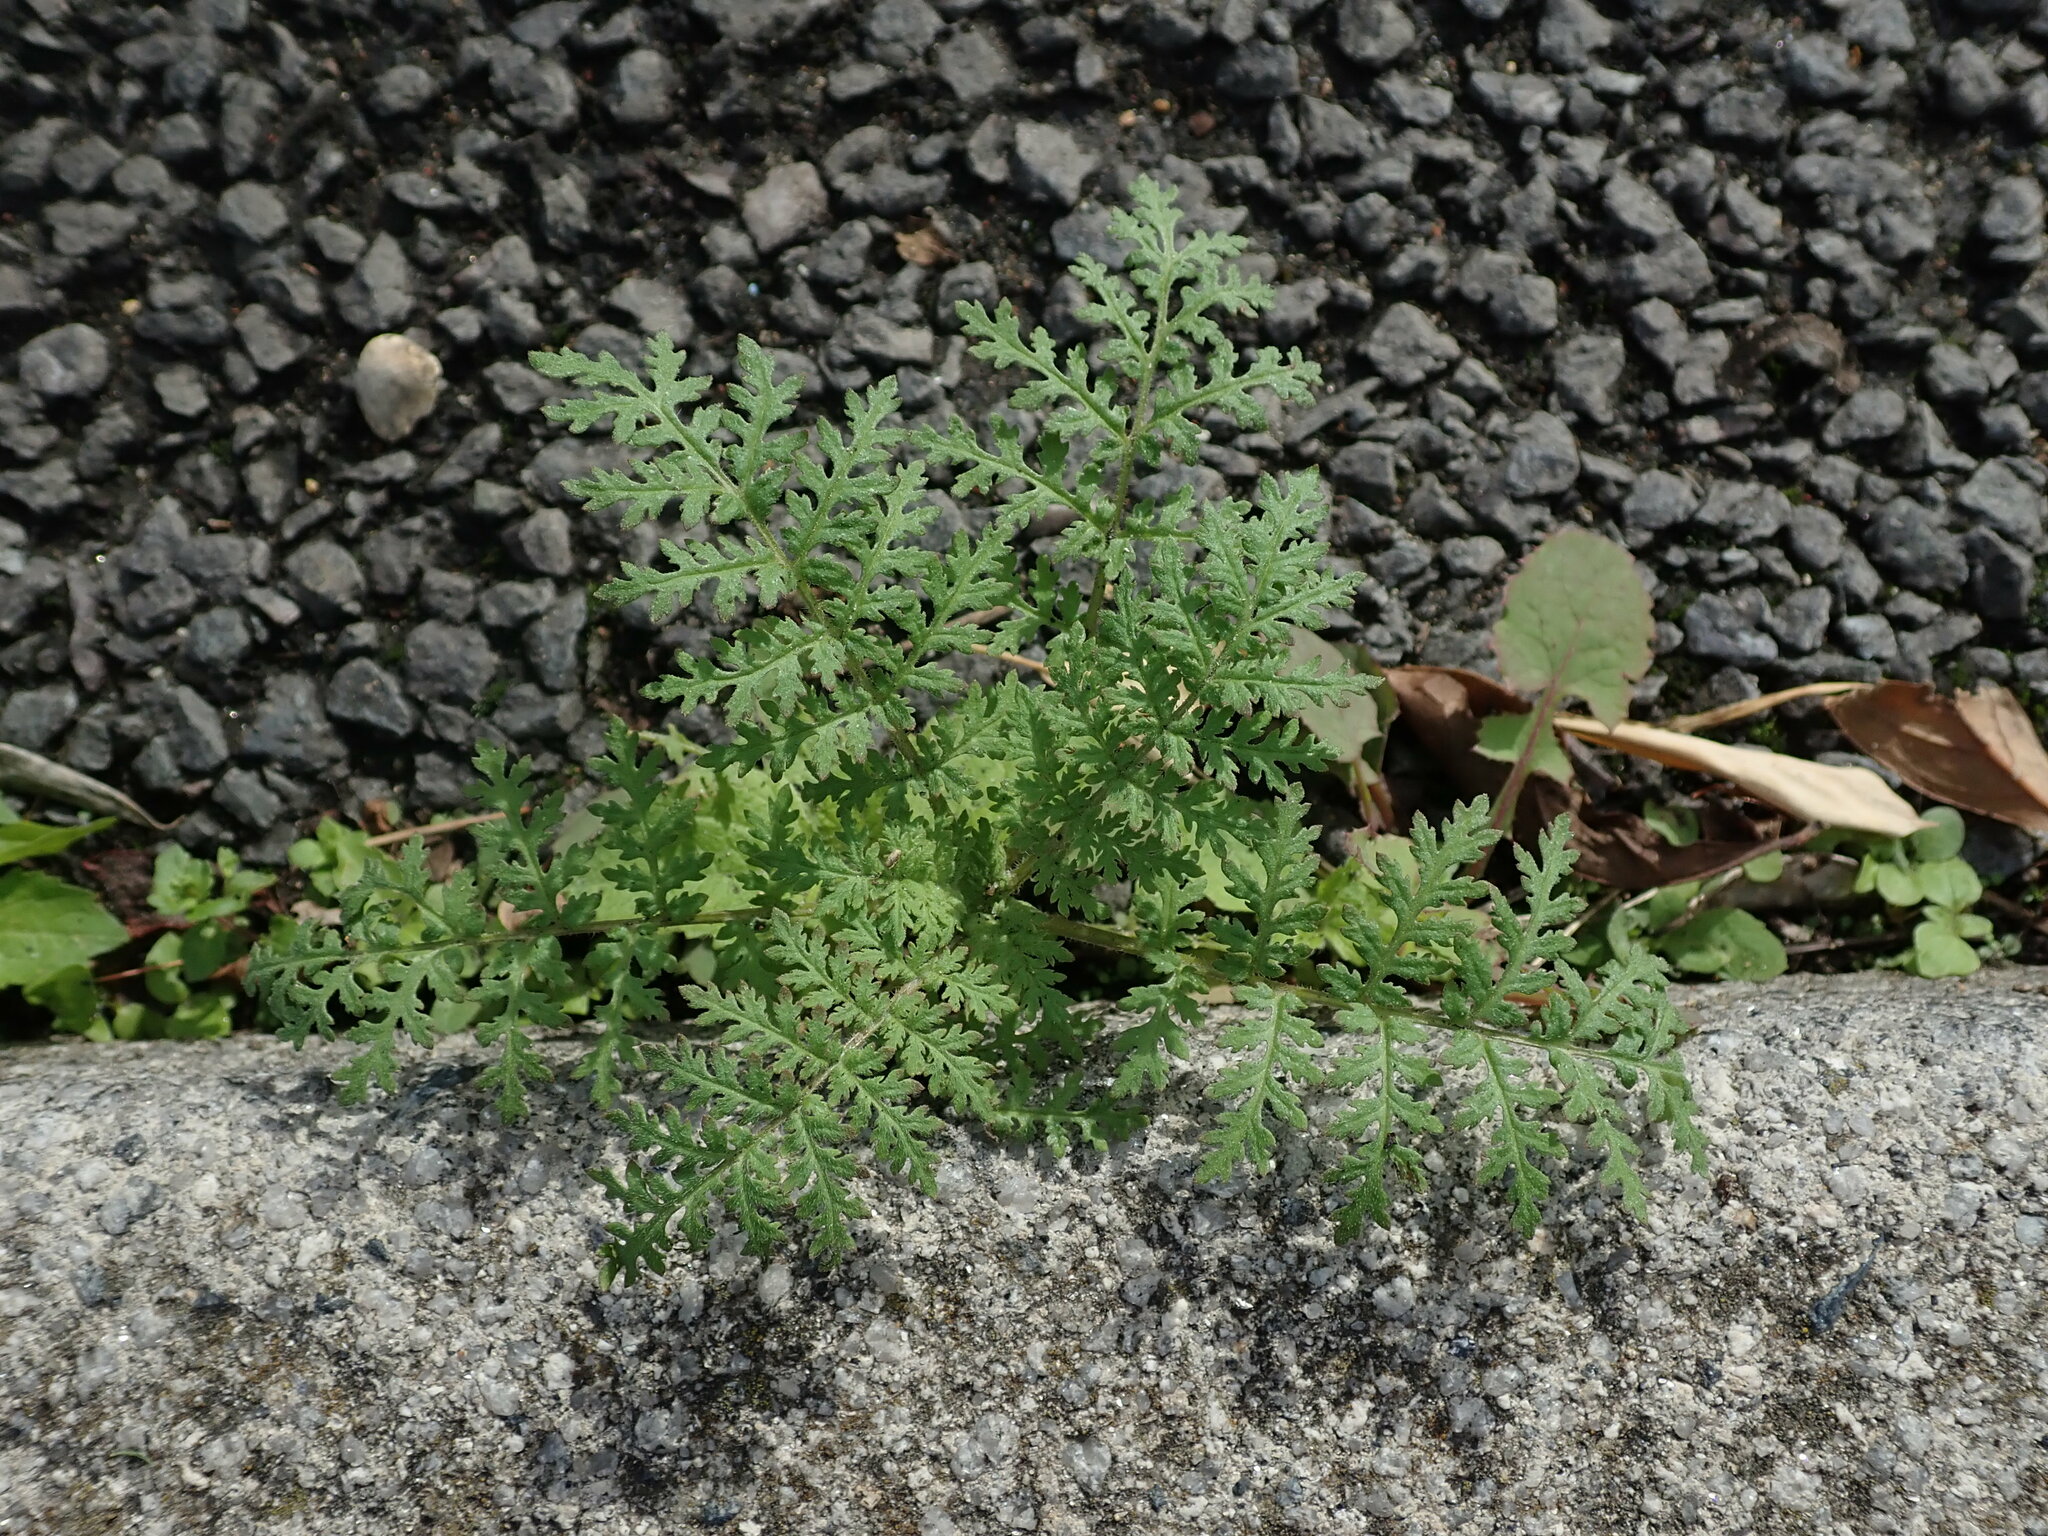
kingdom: Plantae
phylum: Tracheophyta
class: Magnoliopsida
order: Boraginales
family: Hydrophyllaceae
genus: Phacelia
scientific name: Phacelia tanacetifolia
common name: Phacelia
